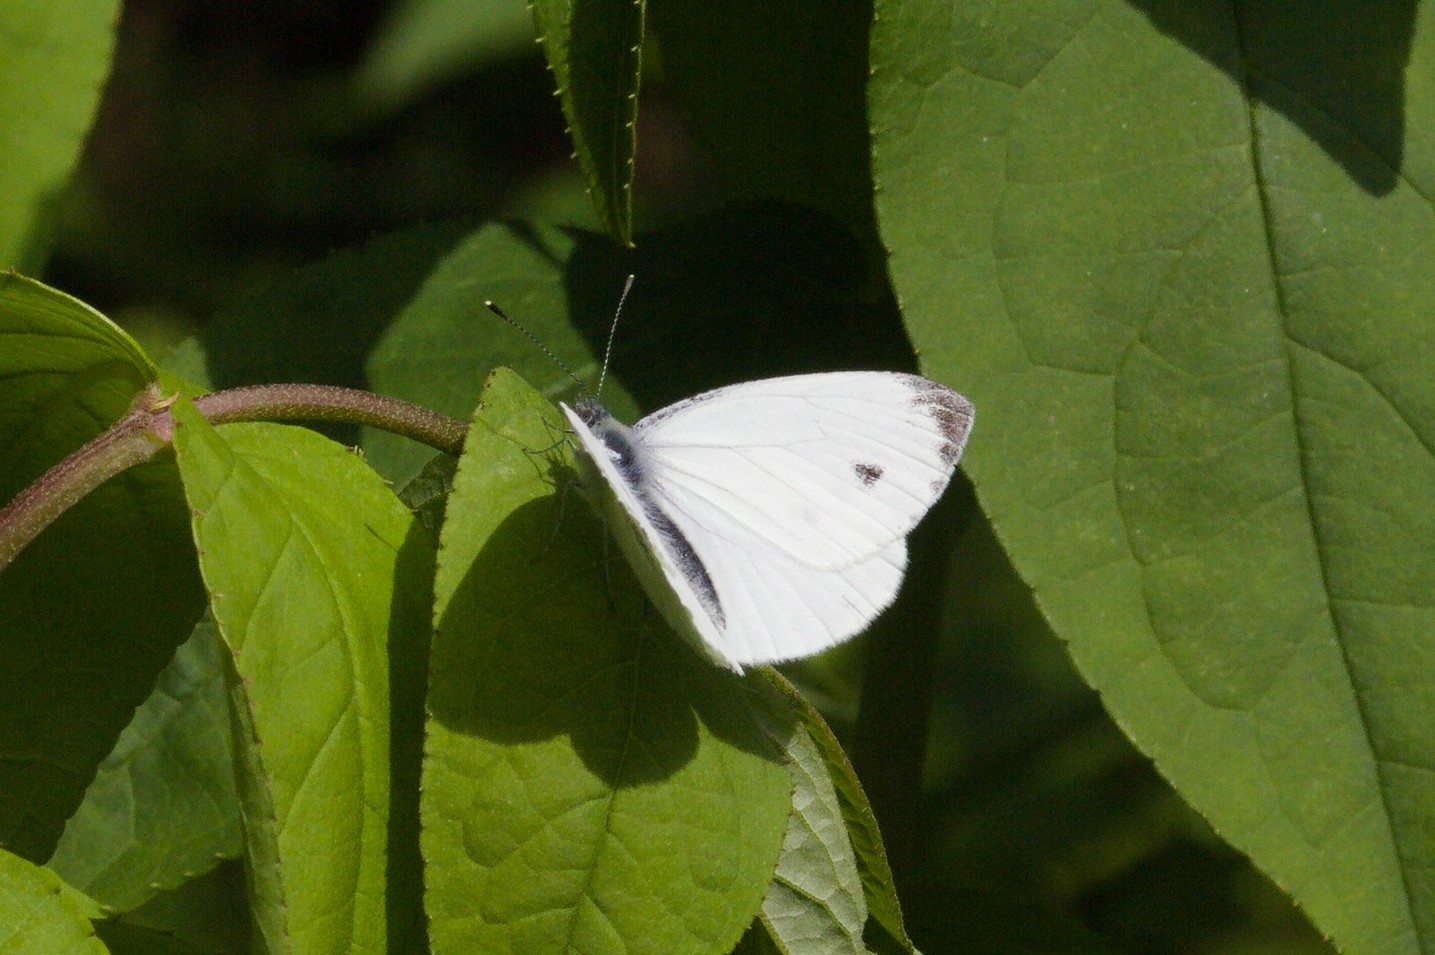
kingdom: Animalia
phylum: Arthropoda
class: Insecta
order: Lepidoptera
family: Pieridae
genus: Pieris
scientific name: Pieris napi
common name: Green-veined white
